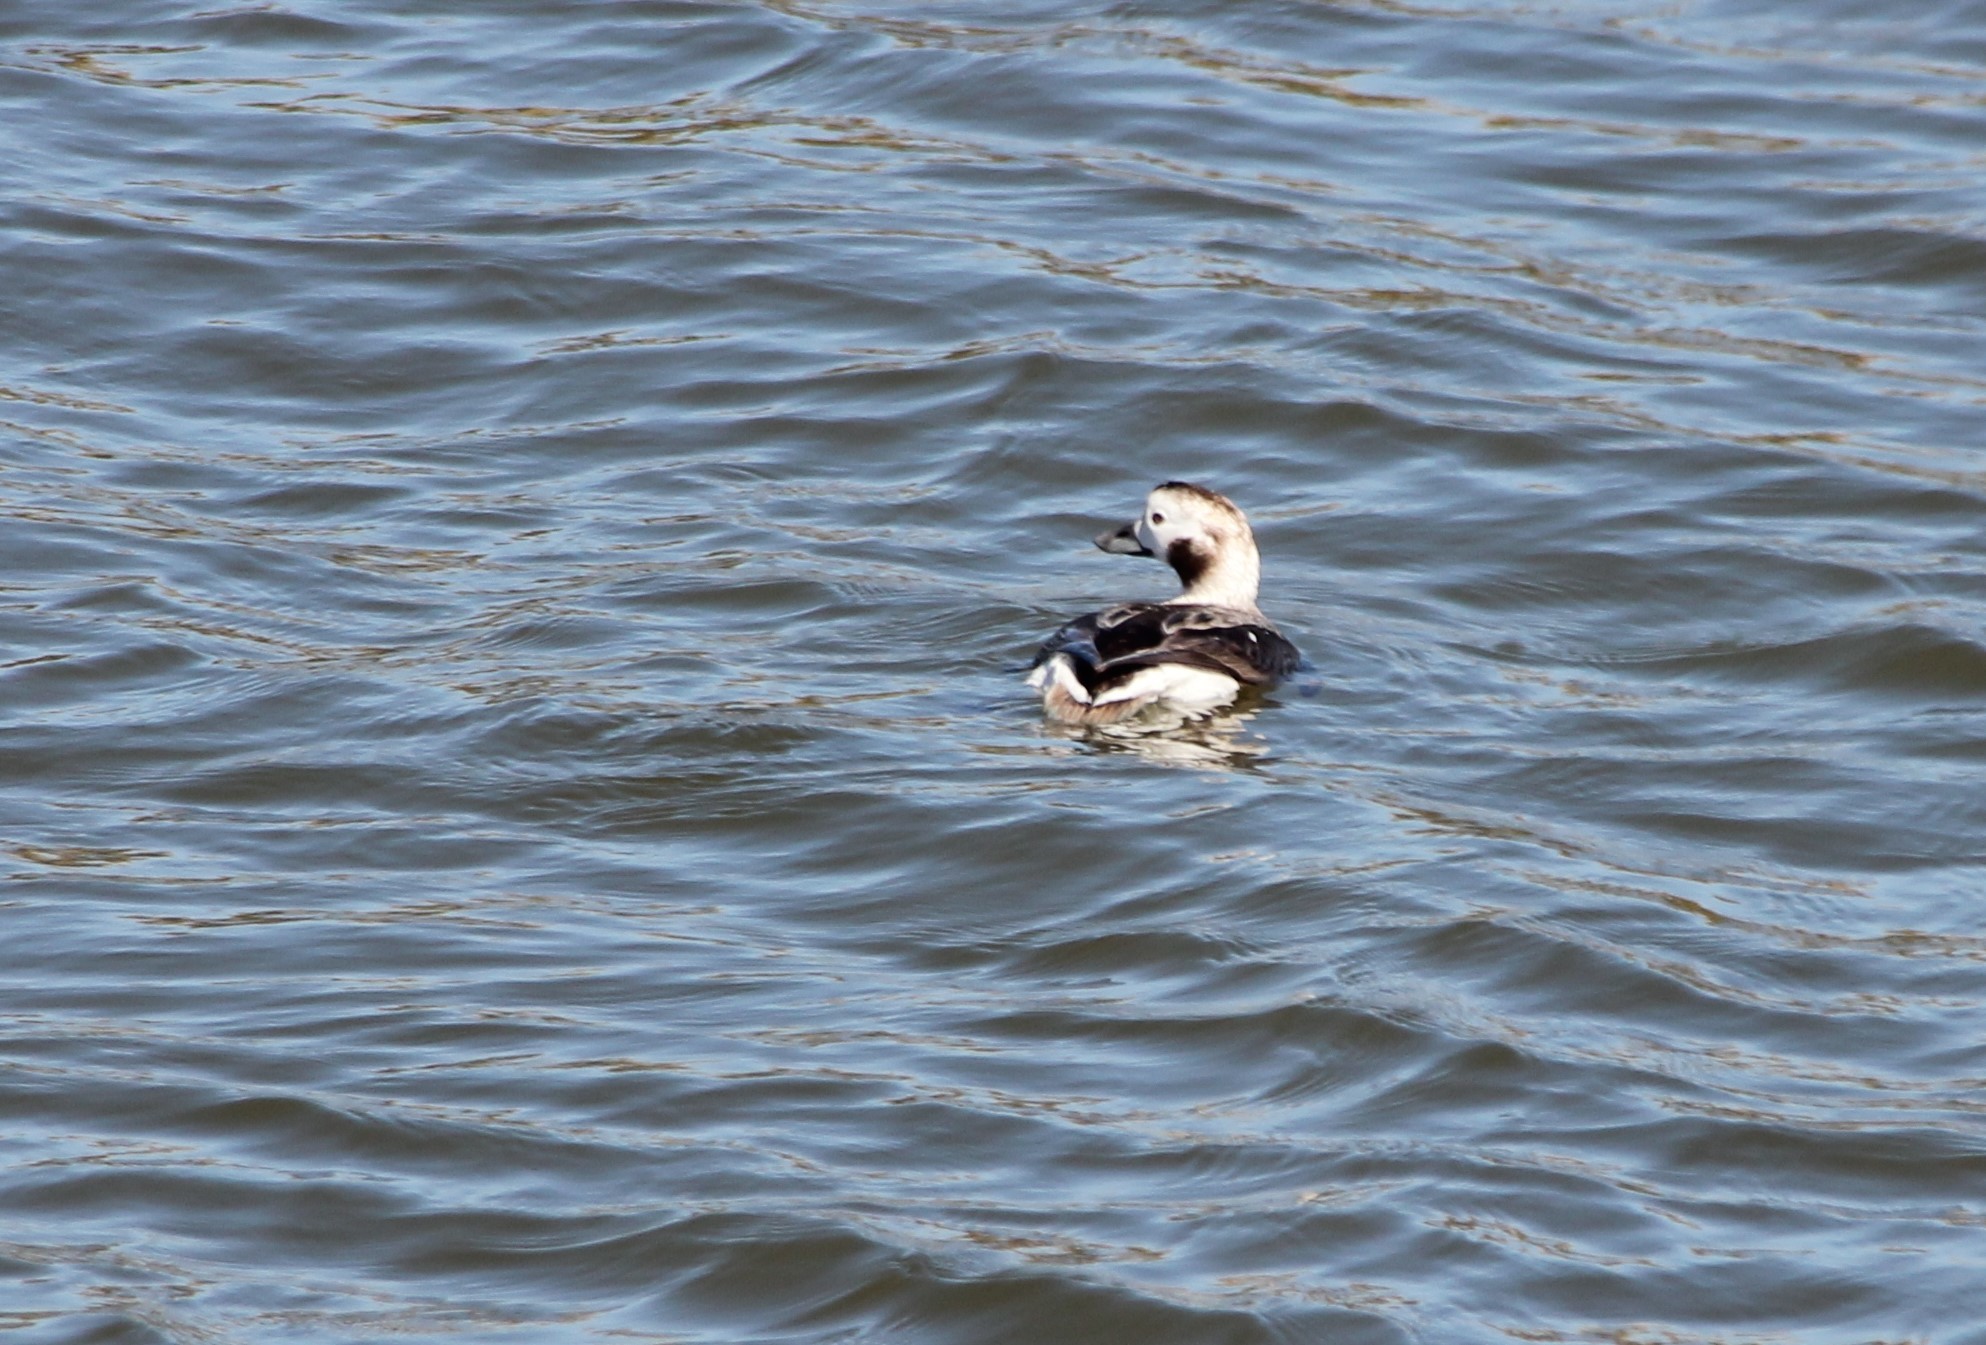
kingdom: Animalia
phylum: Chordata
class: Aves
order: Anseriformes
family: Anatidae
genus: Clangula
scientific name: Clangula hyemalis
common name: Long-tailed duck
